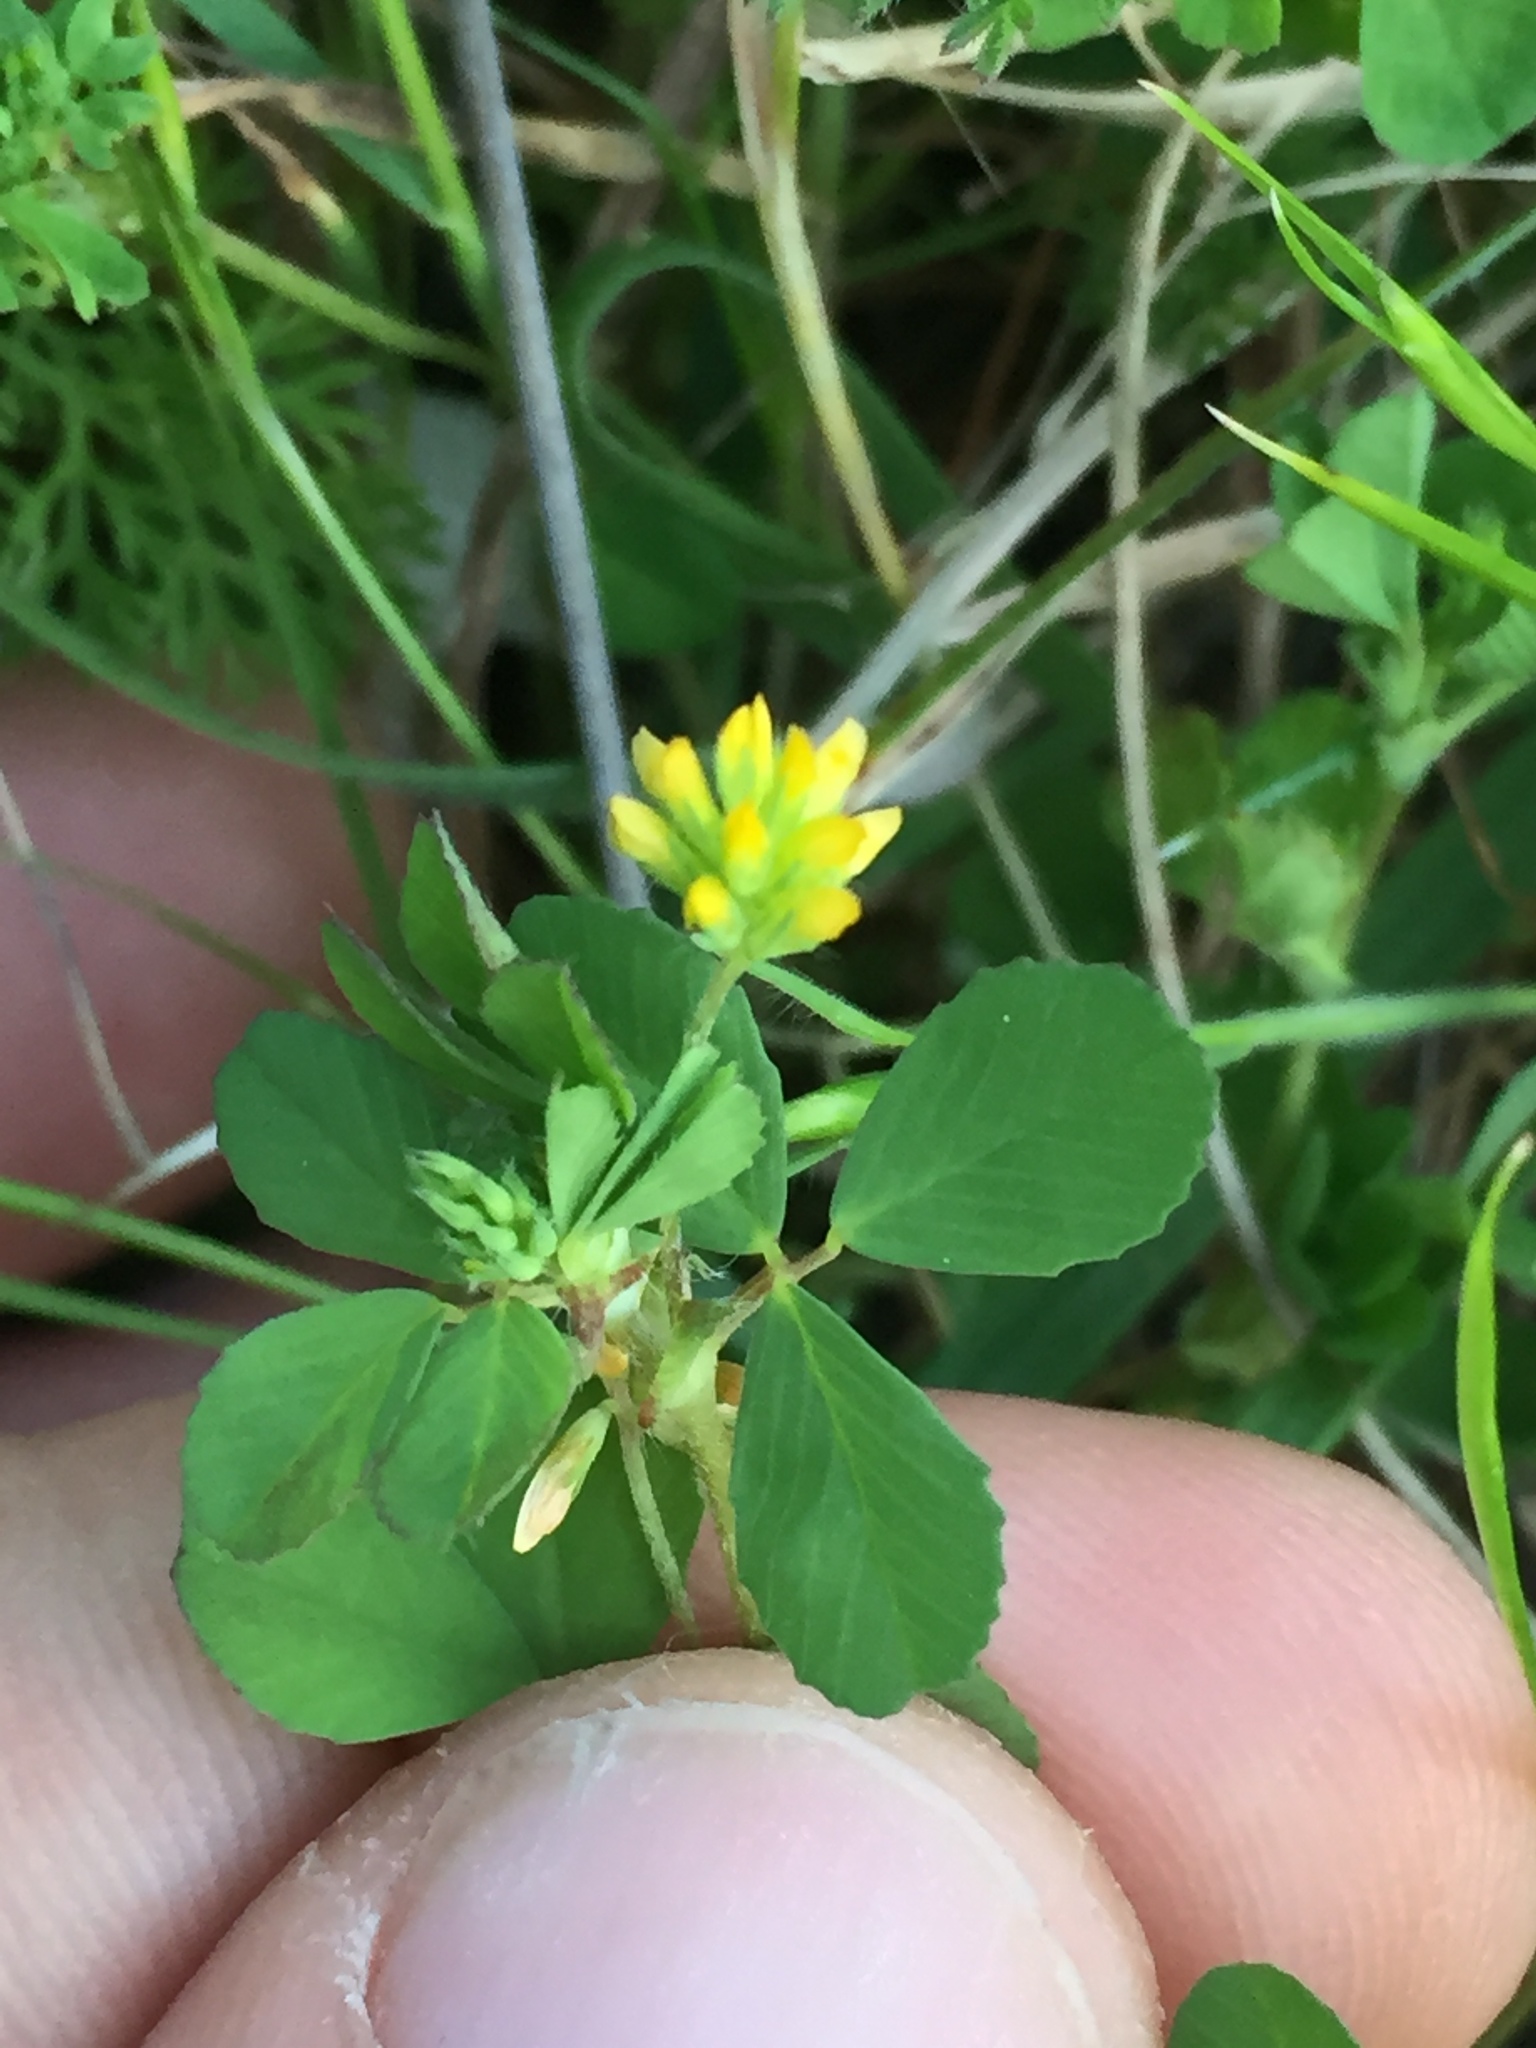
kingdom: Plantae
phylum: Tracheophyta
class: Magnoliopsida
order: Fabales
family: Fabaceae
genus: Trifolium
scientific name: Trifolium dubium
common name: Suckling clover
